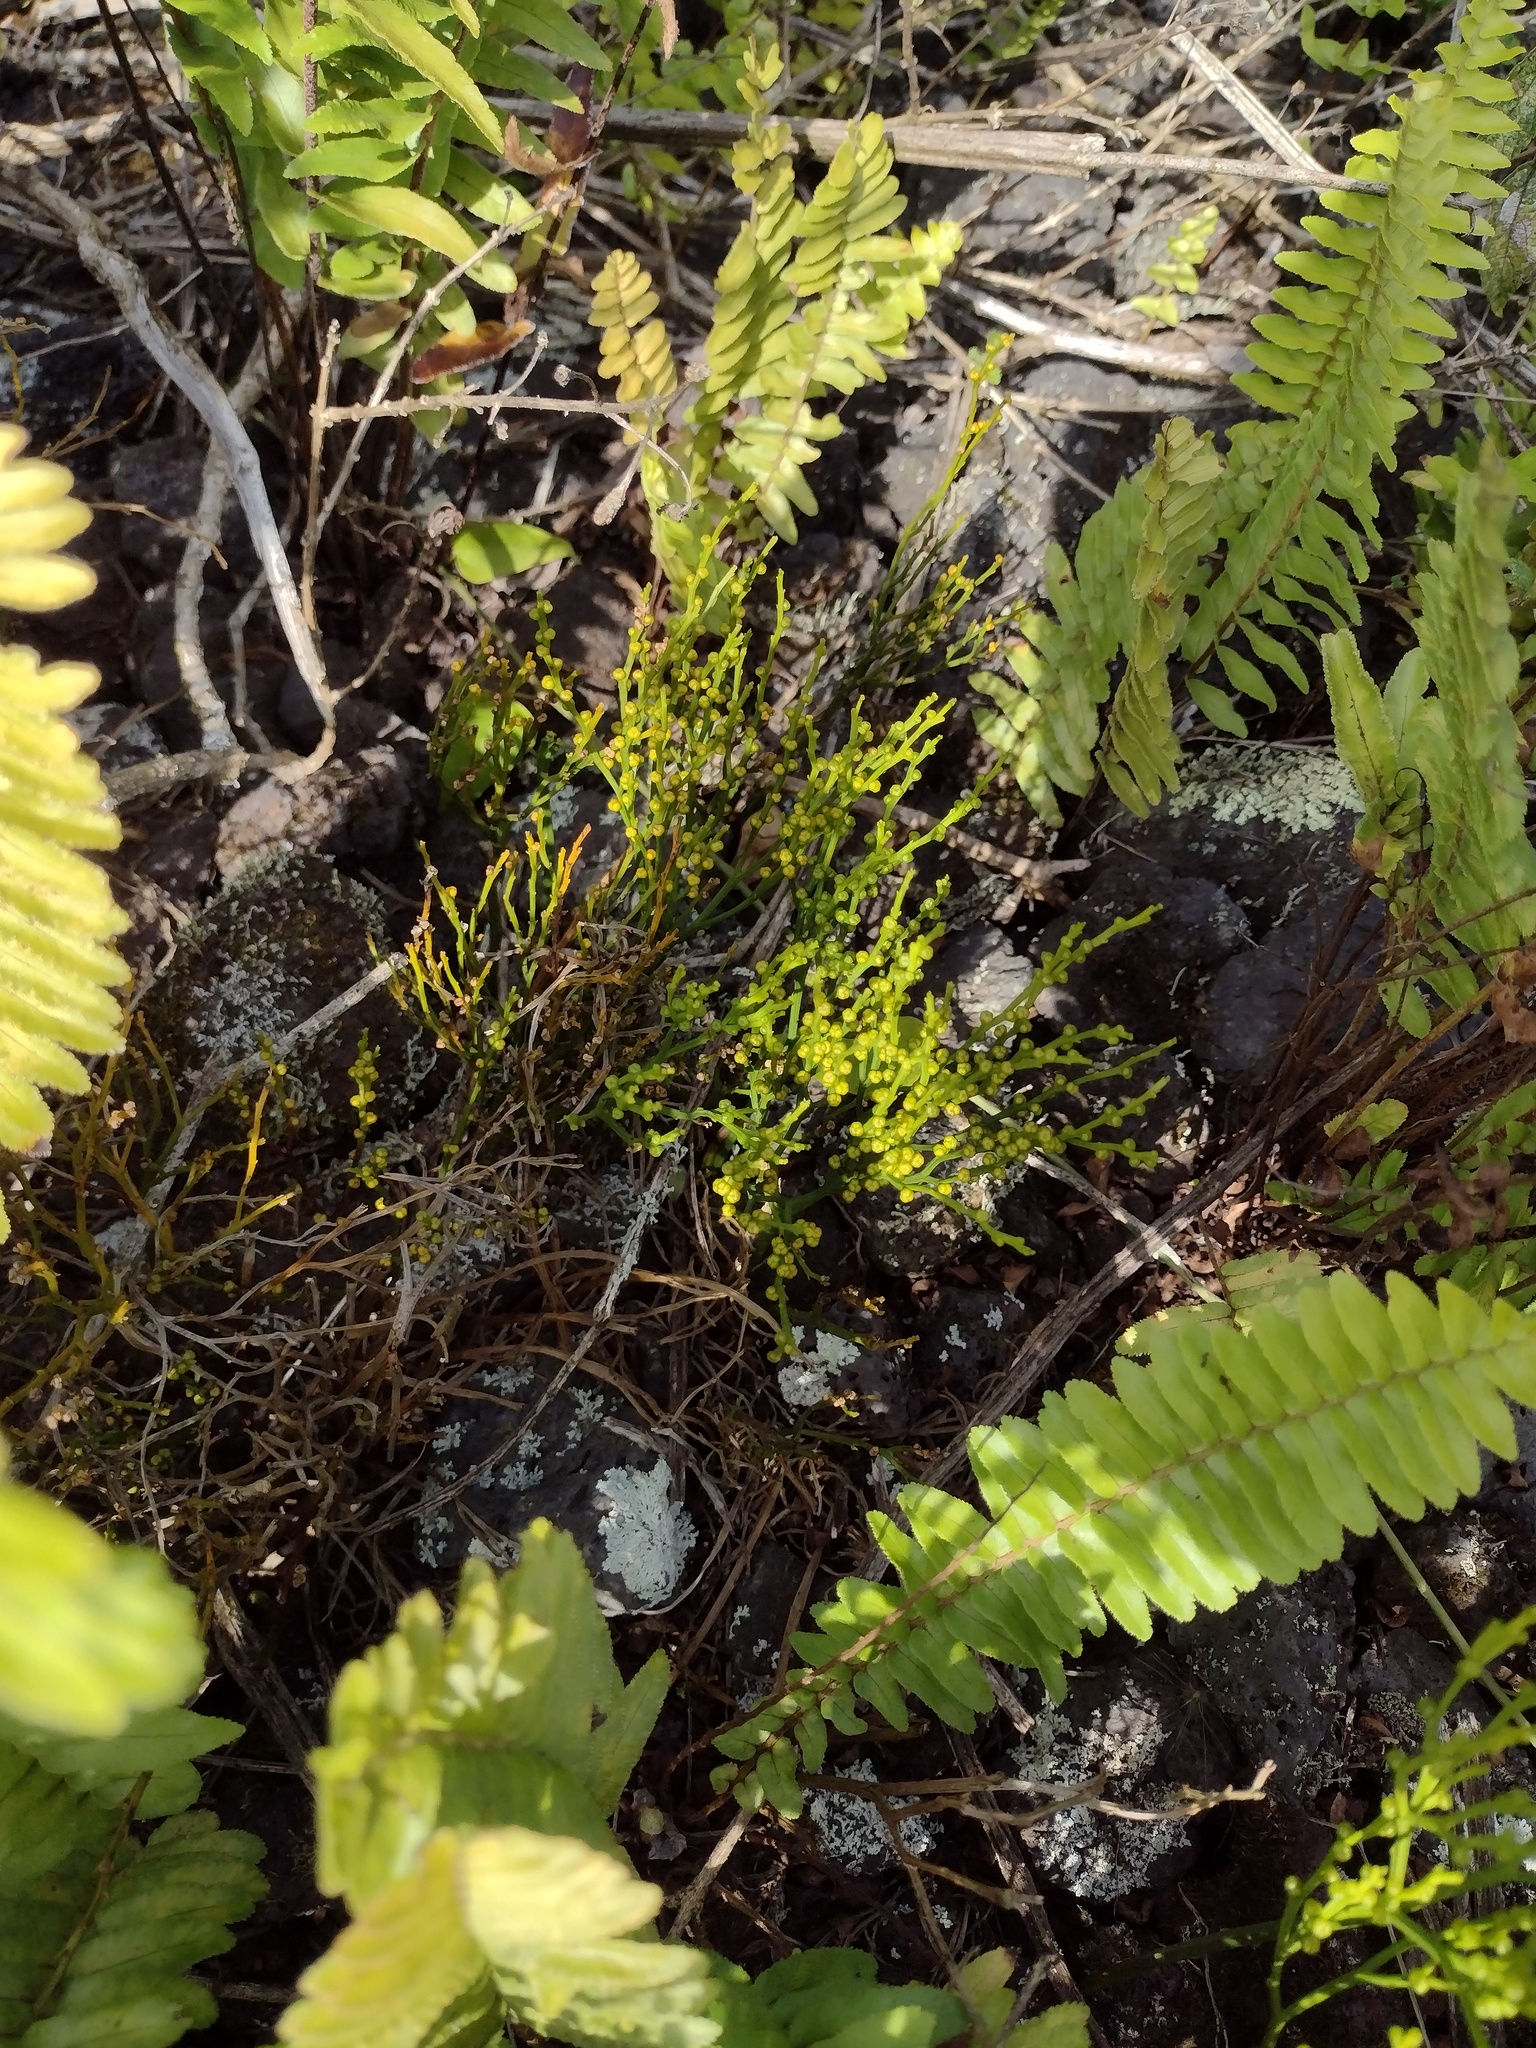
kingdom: Plantae
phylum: Tracheophyta
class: Polypodiopsida
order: Psilotales
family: Psilotaceae
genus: Psilotum
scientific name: Psilotum nudum
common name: Skeleton fork fern
